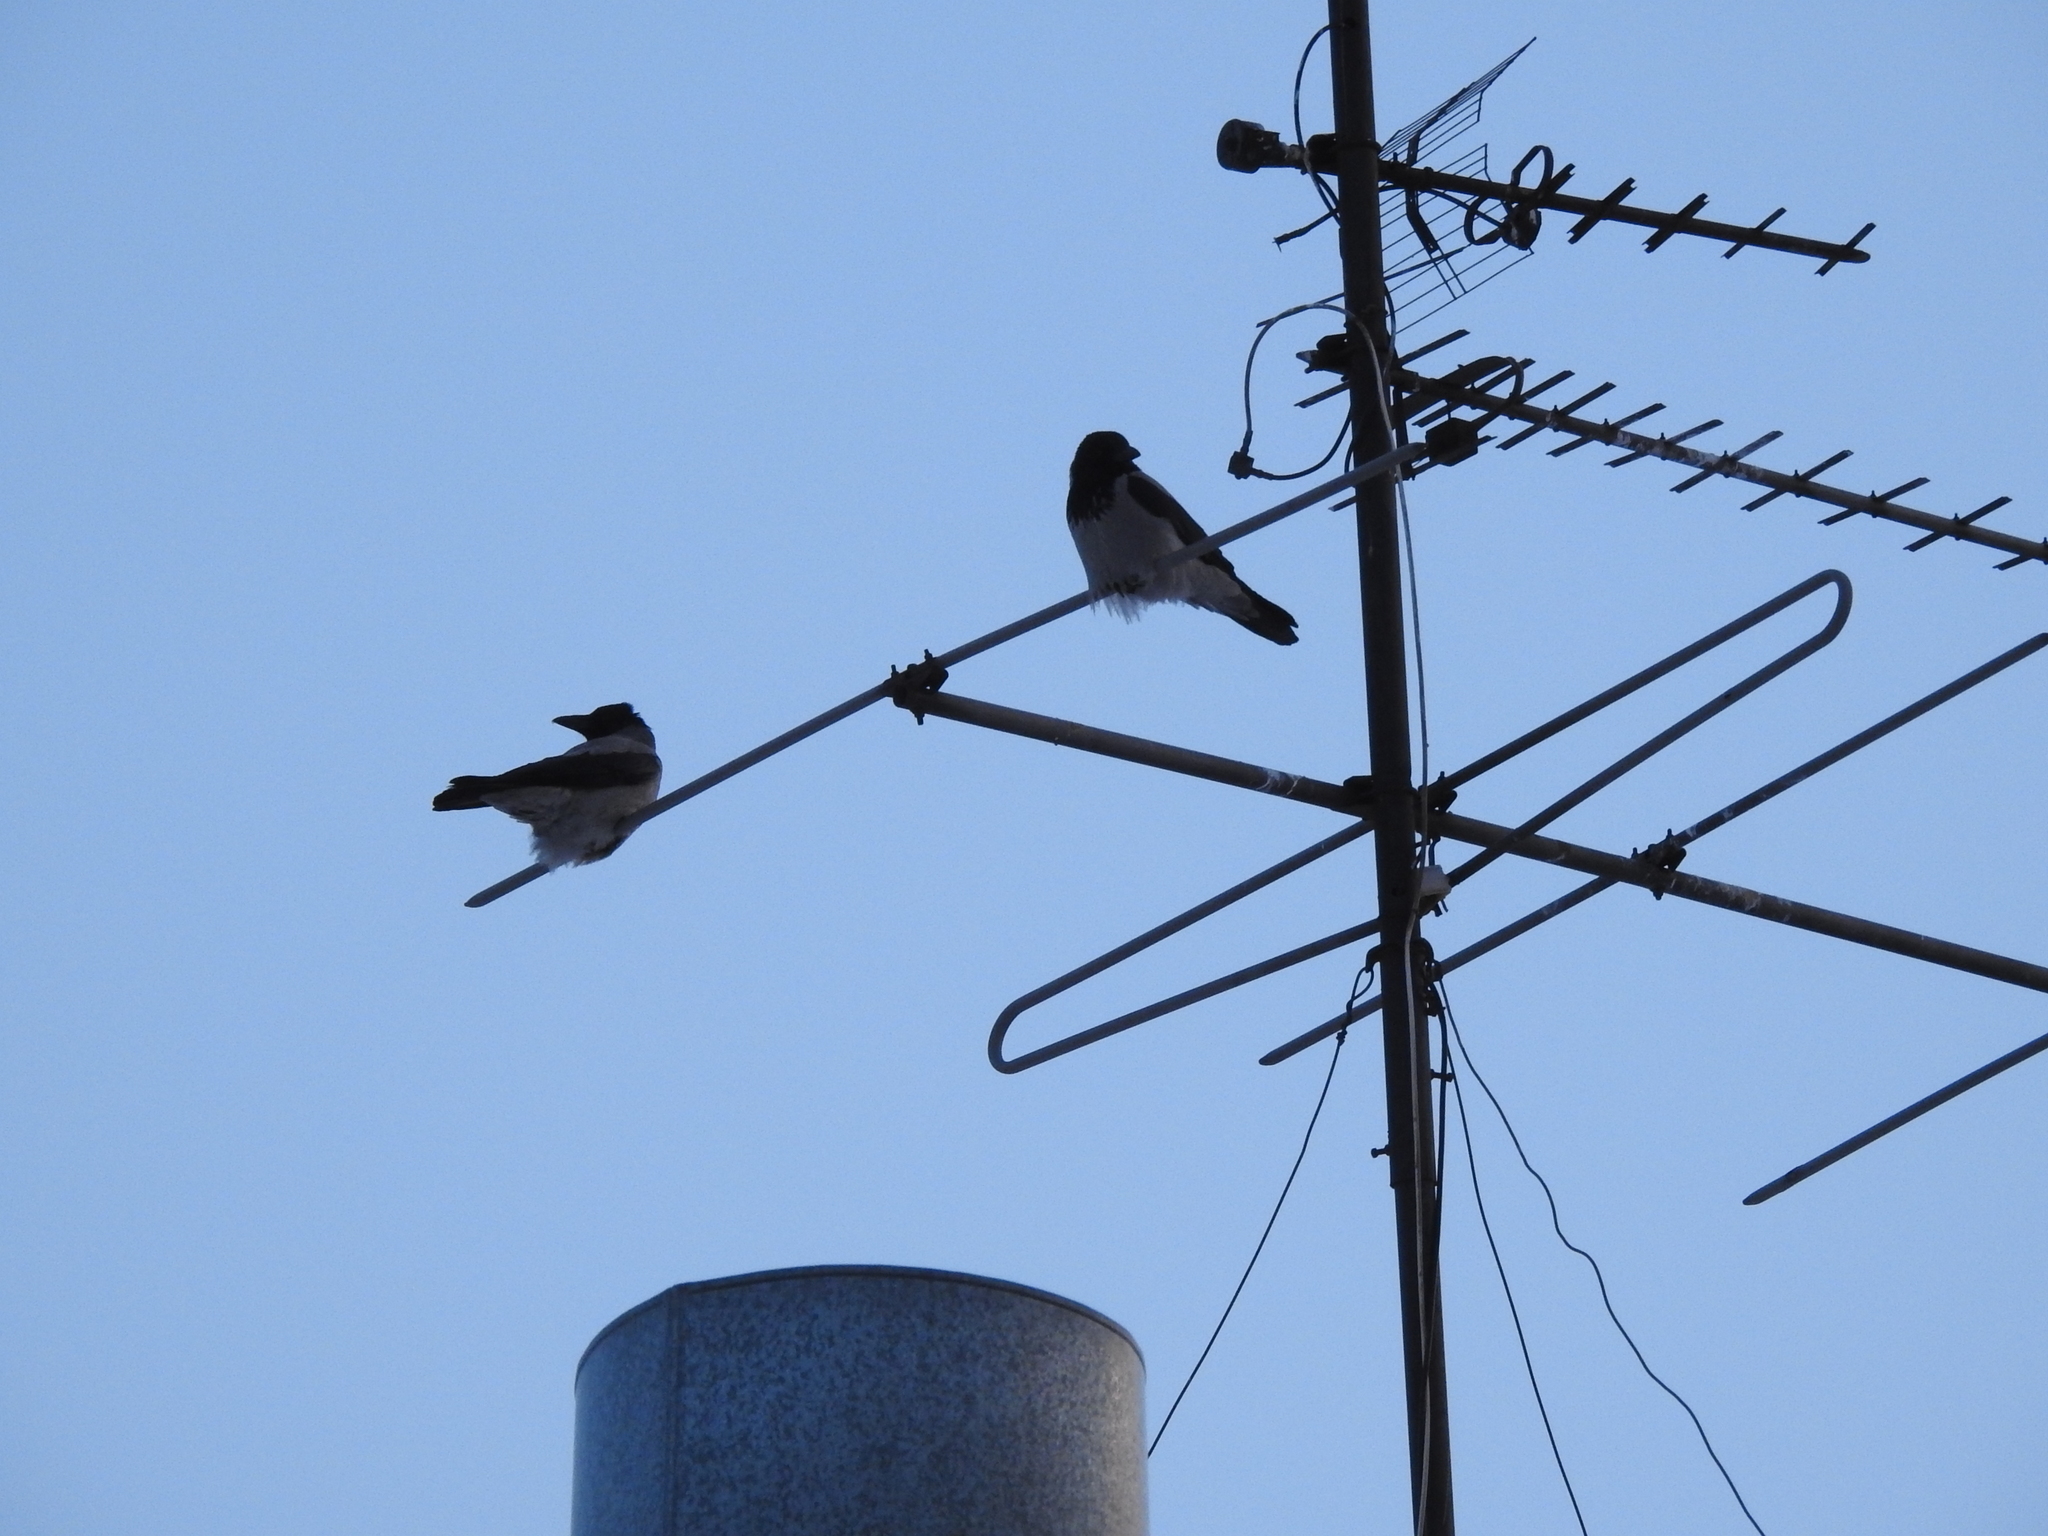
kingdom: Animalia
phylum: Chordata
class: Aves
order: Passeriformes
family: Corvidae
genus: Corvus
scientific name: Corvus cornix
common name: Hooded crow
